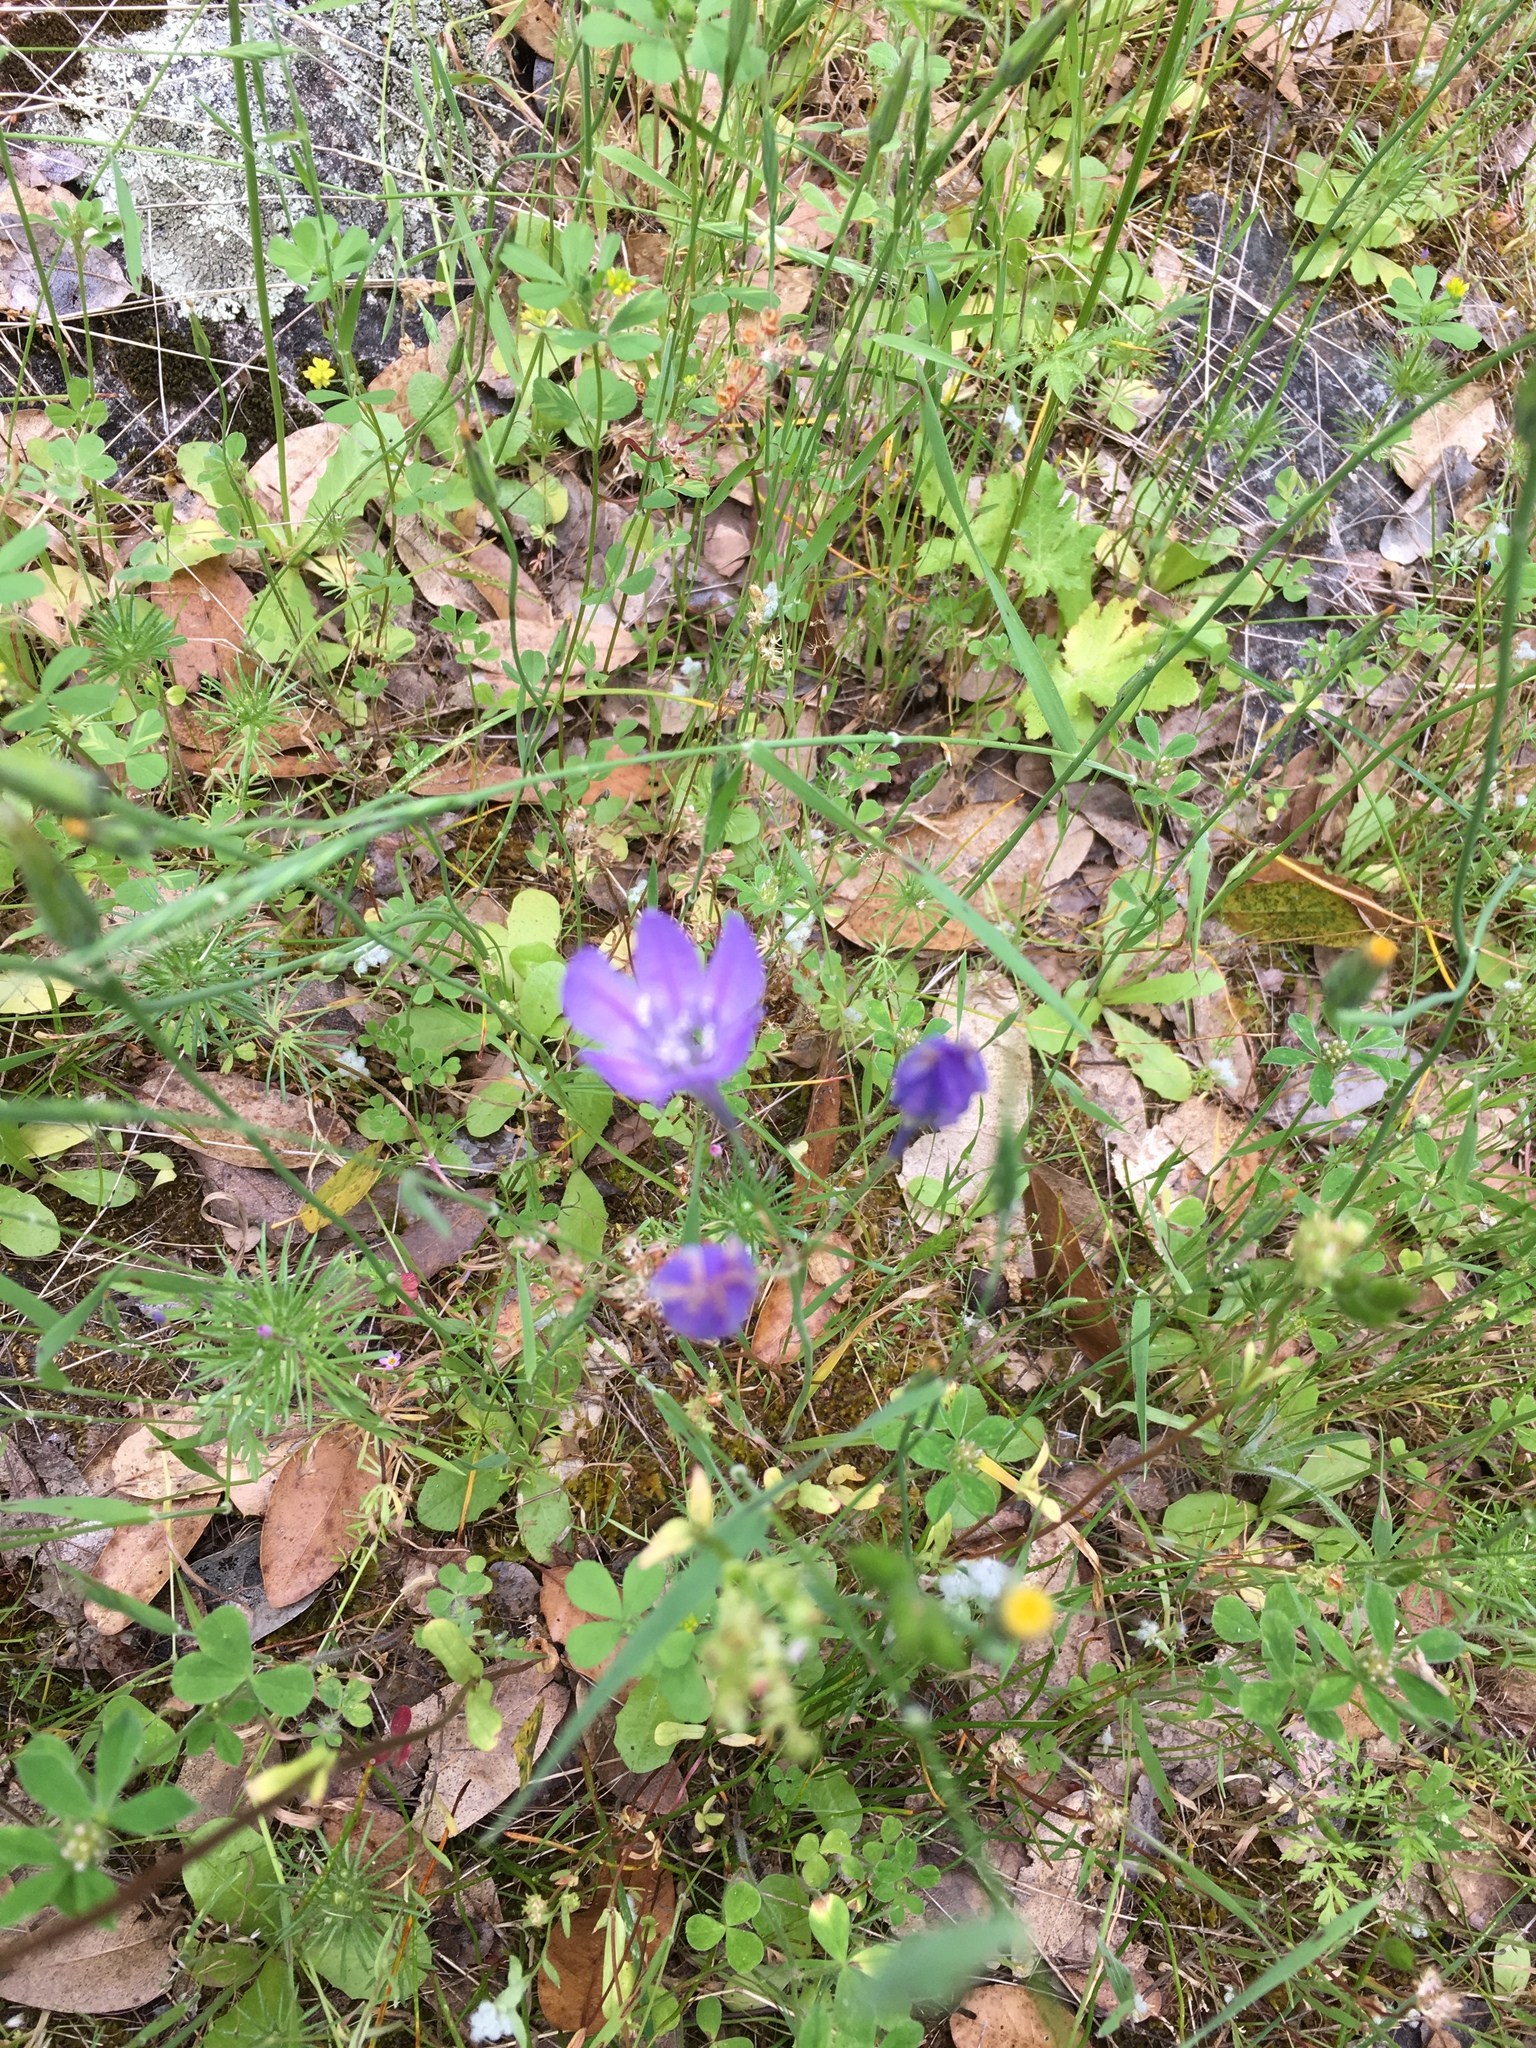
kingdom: Plantae
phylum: Tracheophyta
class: Liliopsida
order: Asparagales
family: Asparagaceae
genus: Triteleia
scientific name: Triteleia laxa
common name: Triplet-lily
